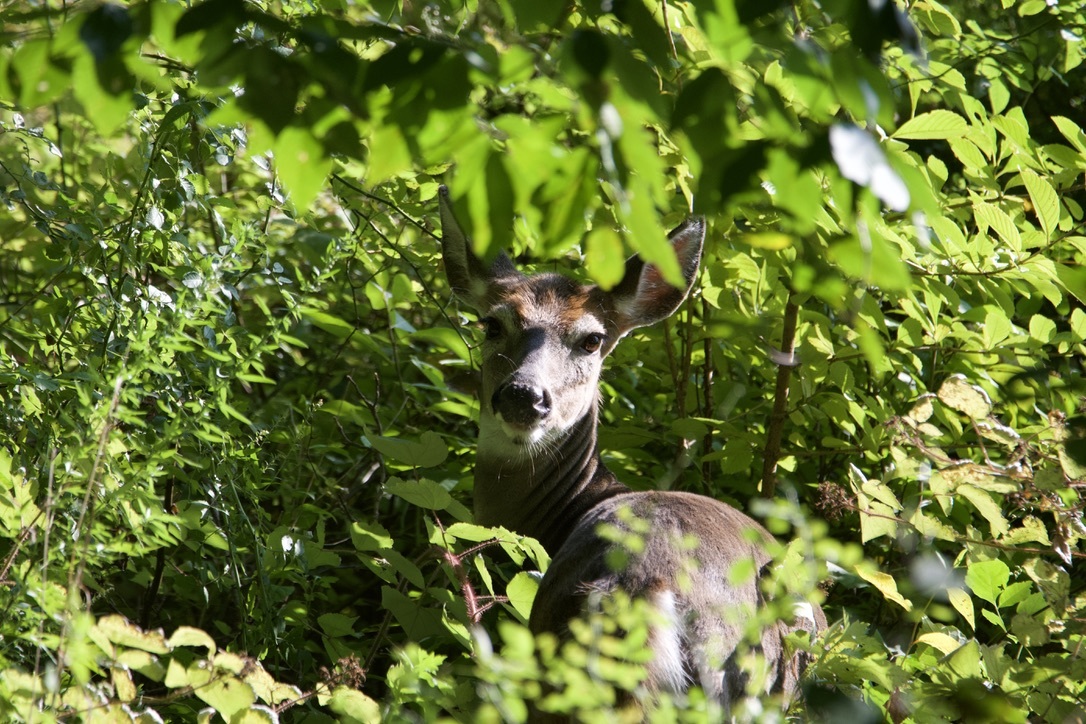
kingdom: Animalia
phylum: Chordata
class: Mammalia
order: Artiodactyla
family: Cervidae
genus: Odocoileus
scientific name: Odocoileus virginianus
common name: White-tailed deer
